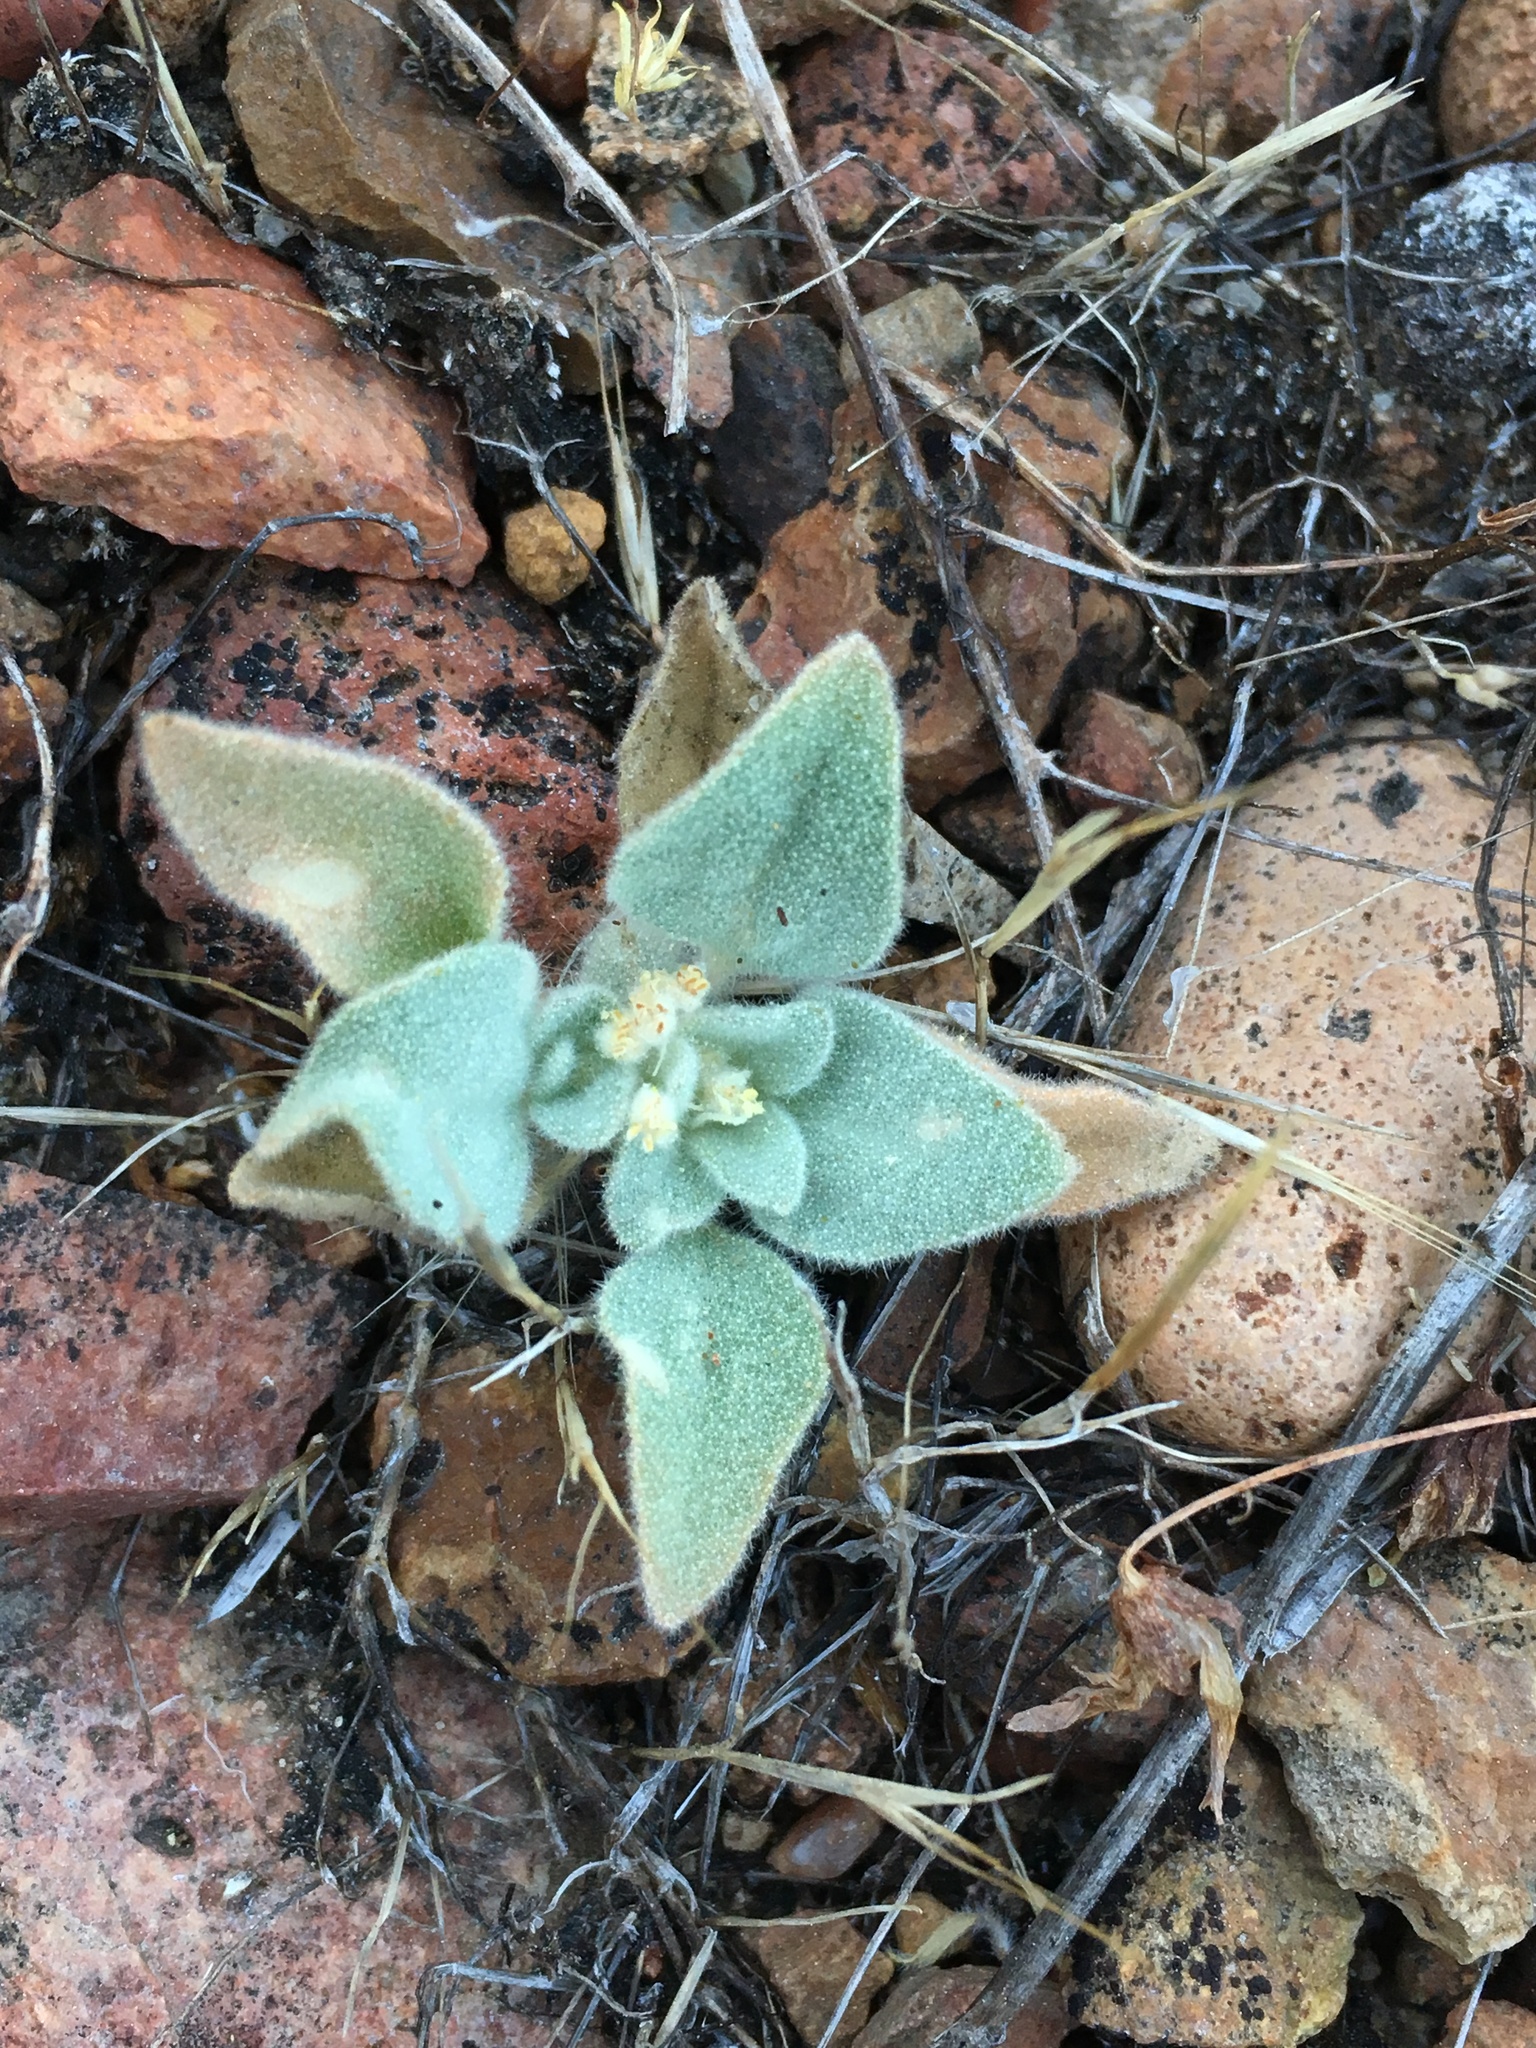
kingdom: Plantae
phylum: Tracheophyta
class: Magnoliopsida
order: Malpighiales
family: Euphorbiaceae
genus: Croton
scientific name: Croton setiger
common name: Dove weed
